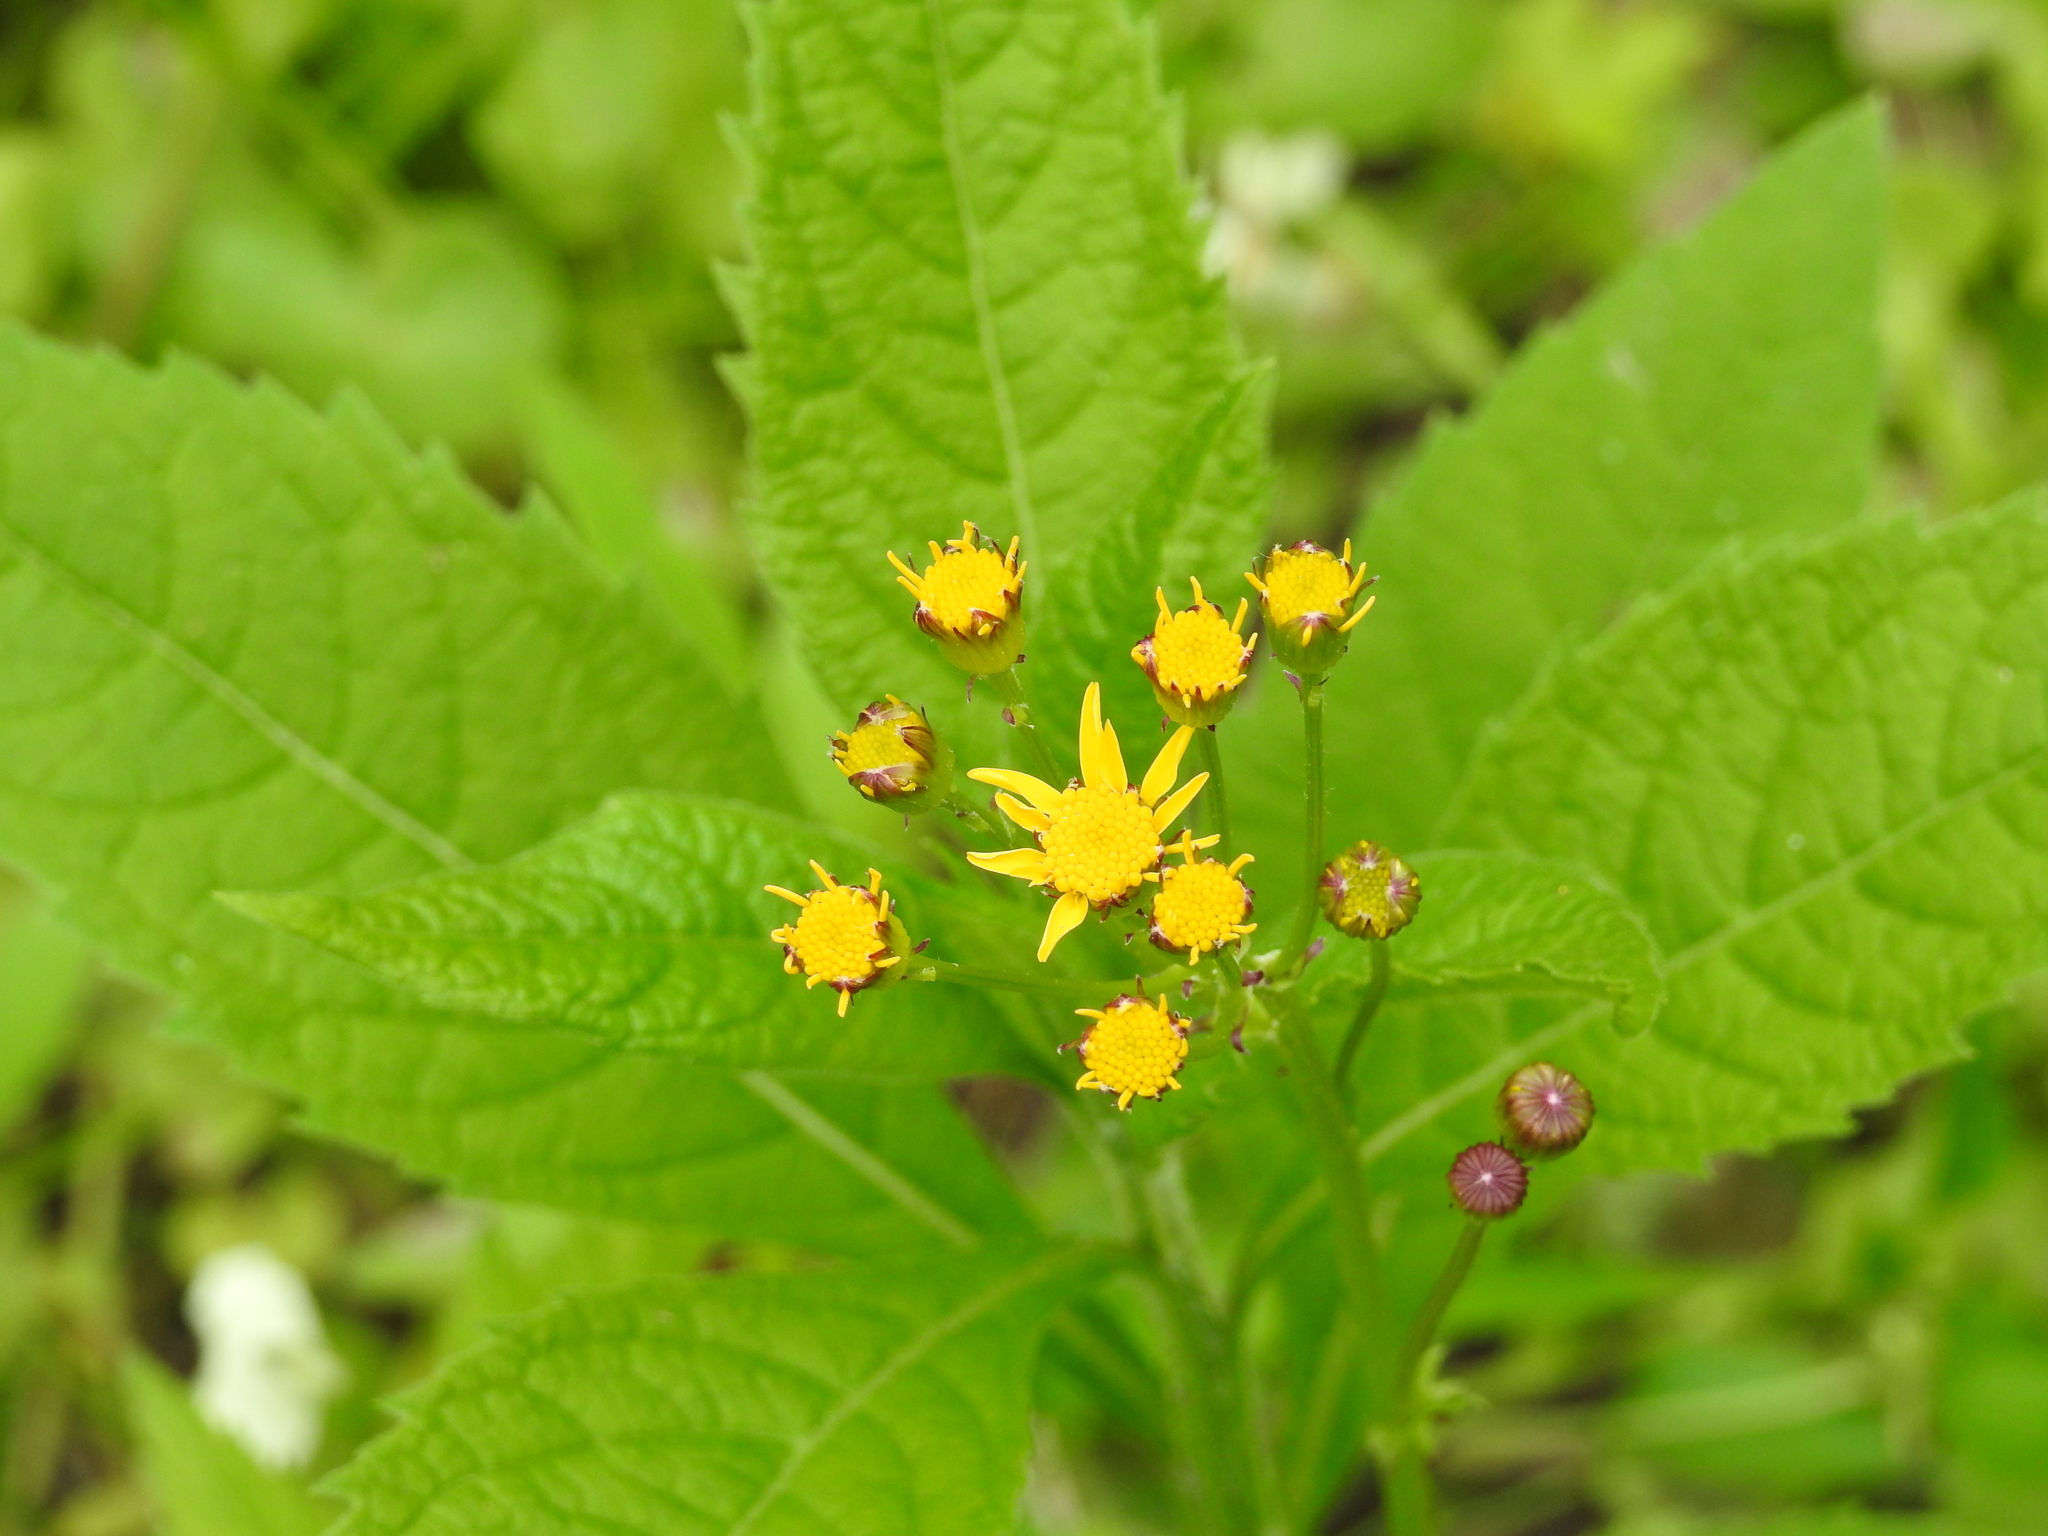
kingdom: Plantae
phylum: Tracheophyta
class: Magnoliopsida
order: Asterales
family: Asteraceae
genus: Verbesina
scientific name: Verbesina alternifolia
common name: Wingstem
